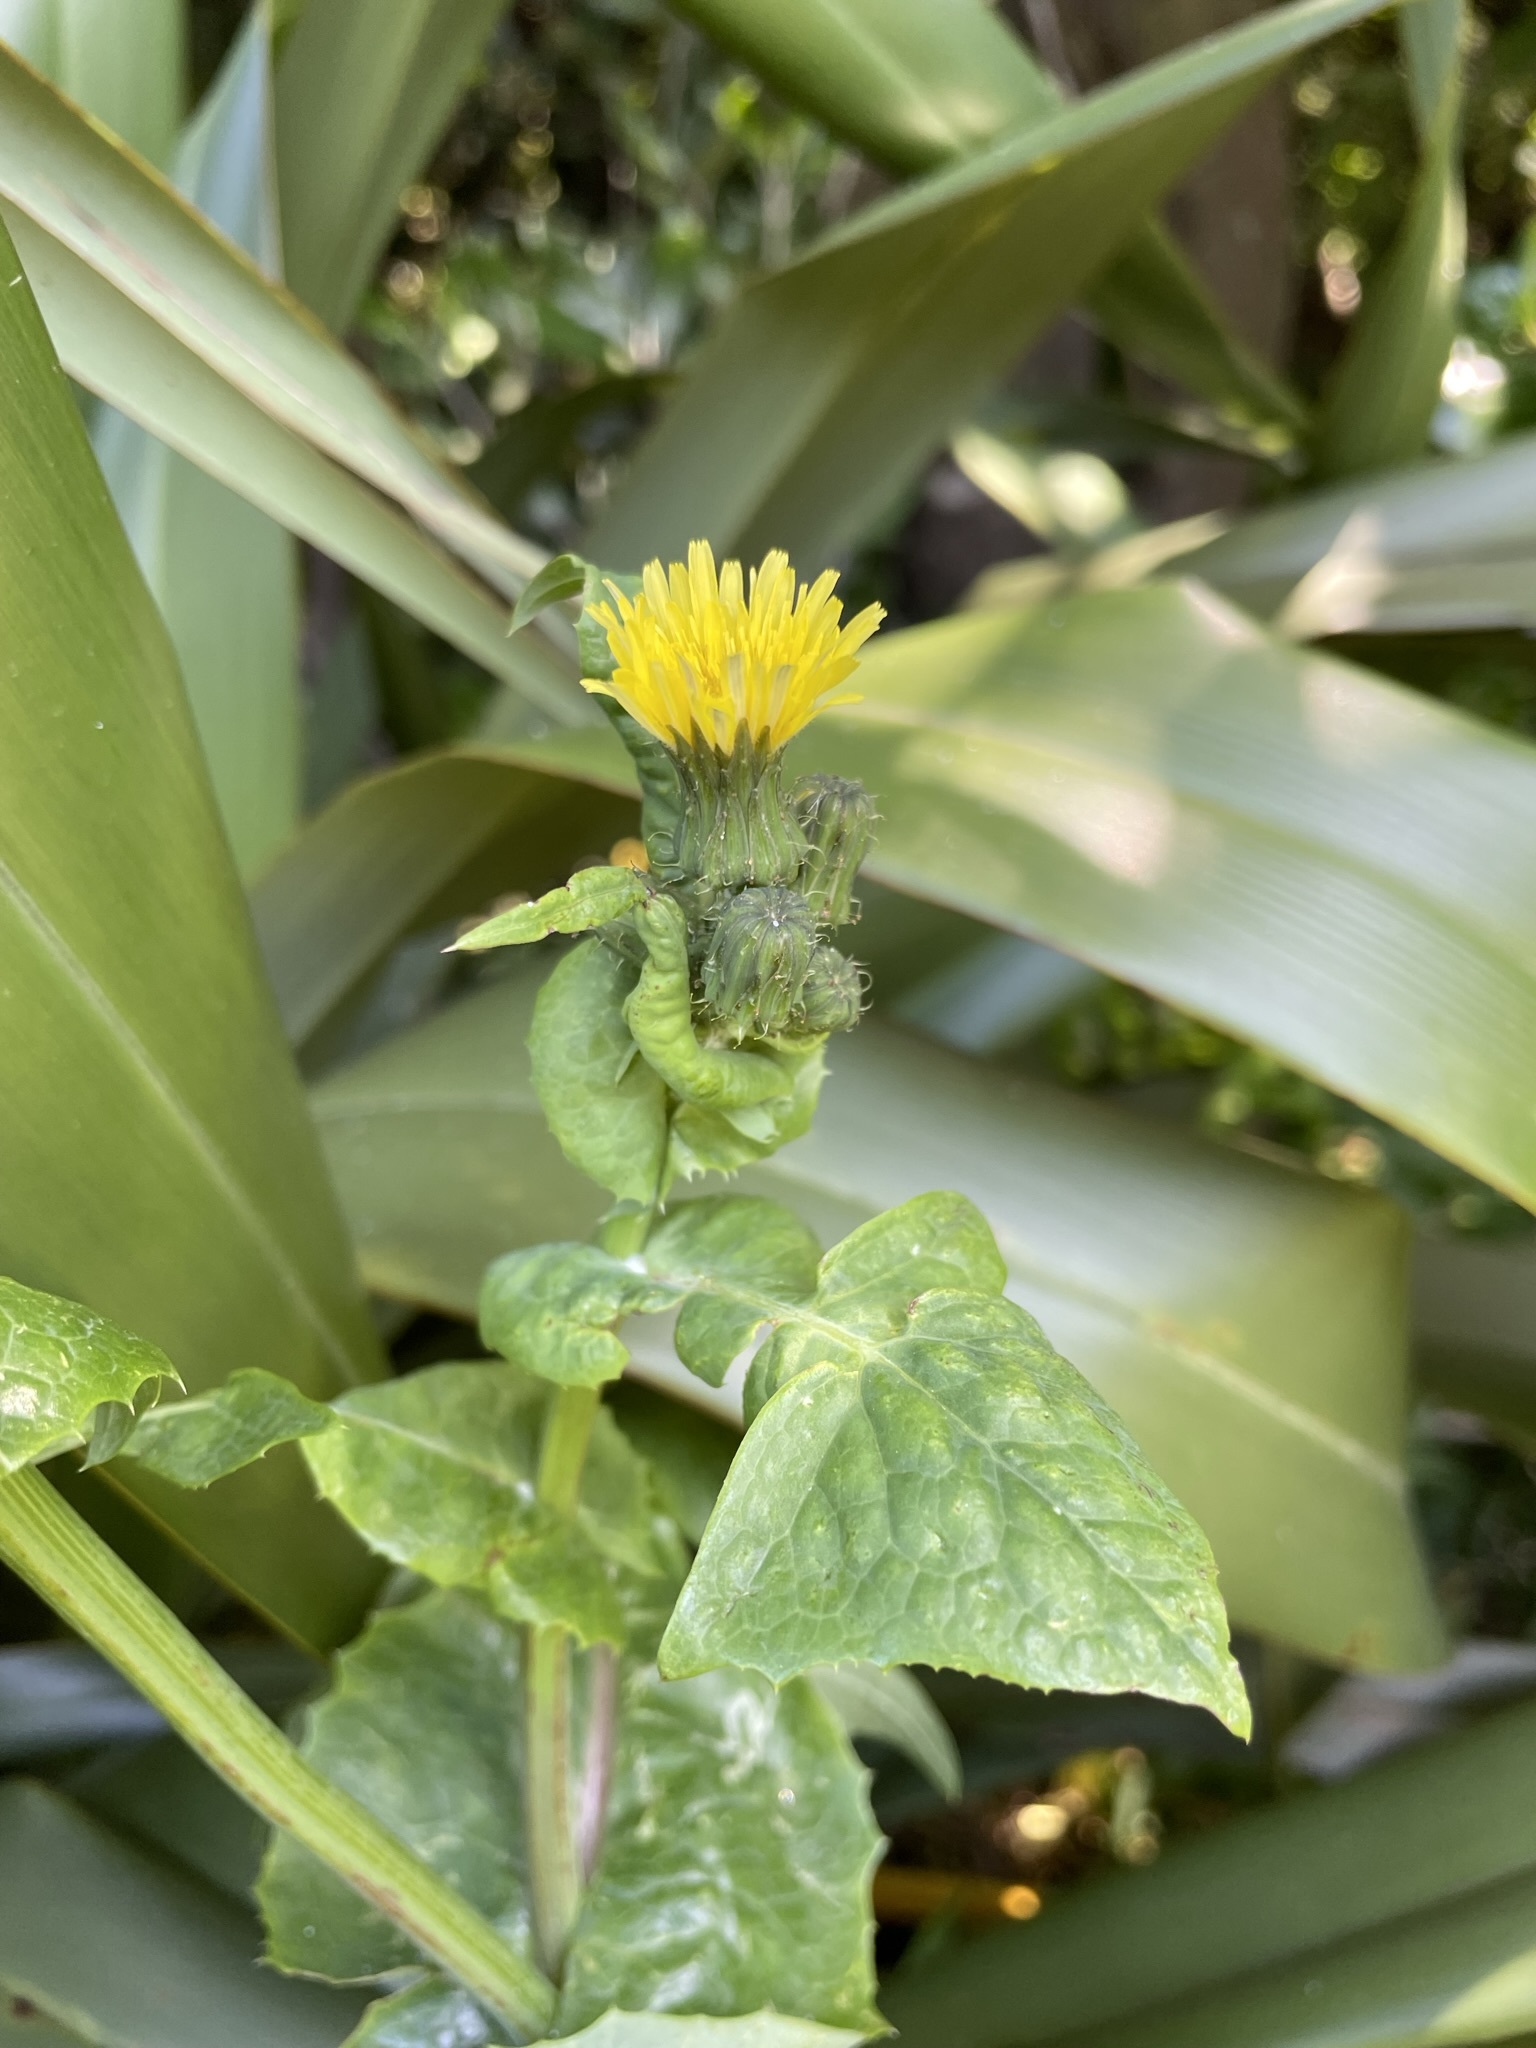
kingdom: Plantae
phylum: Tracheophyta
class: Magnoliopsida
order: Asterales
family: Asteraceae
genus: Sonchus
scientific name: Sonchus oleraceus
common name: Common sowthistle
